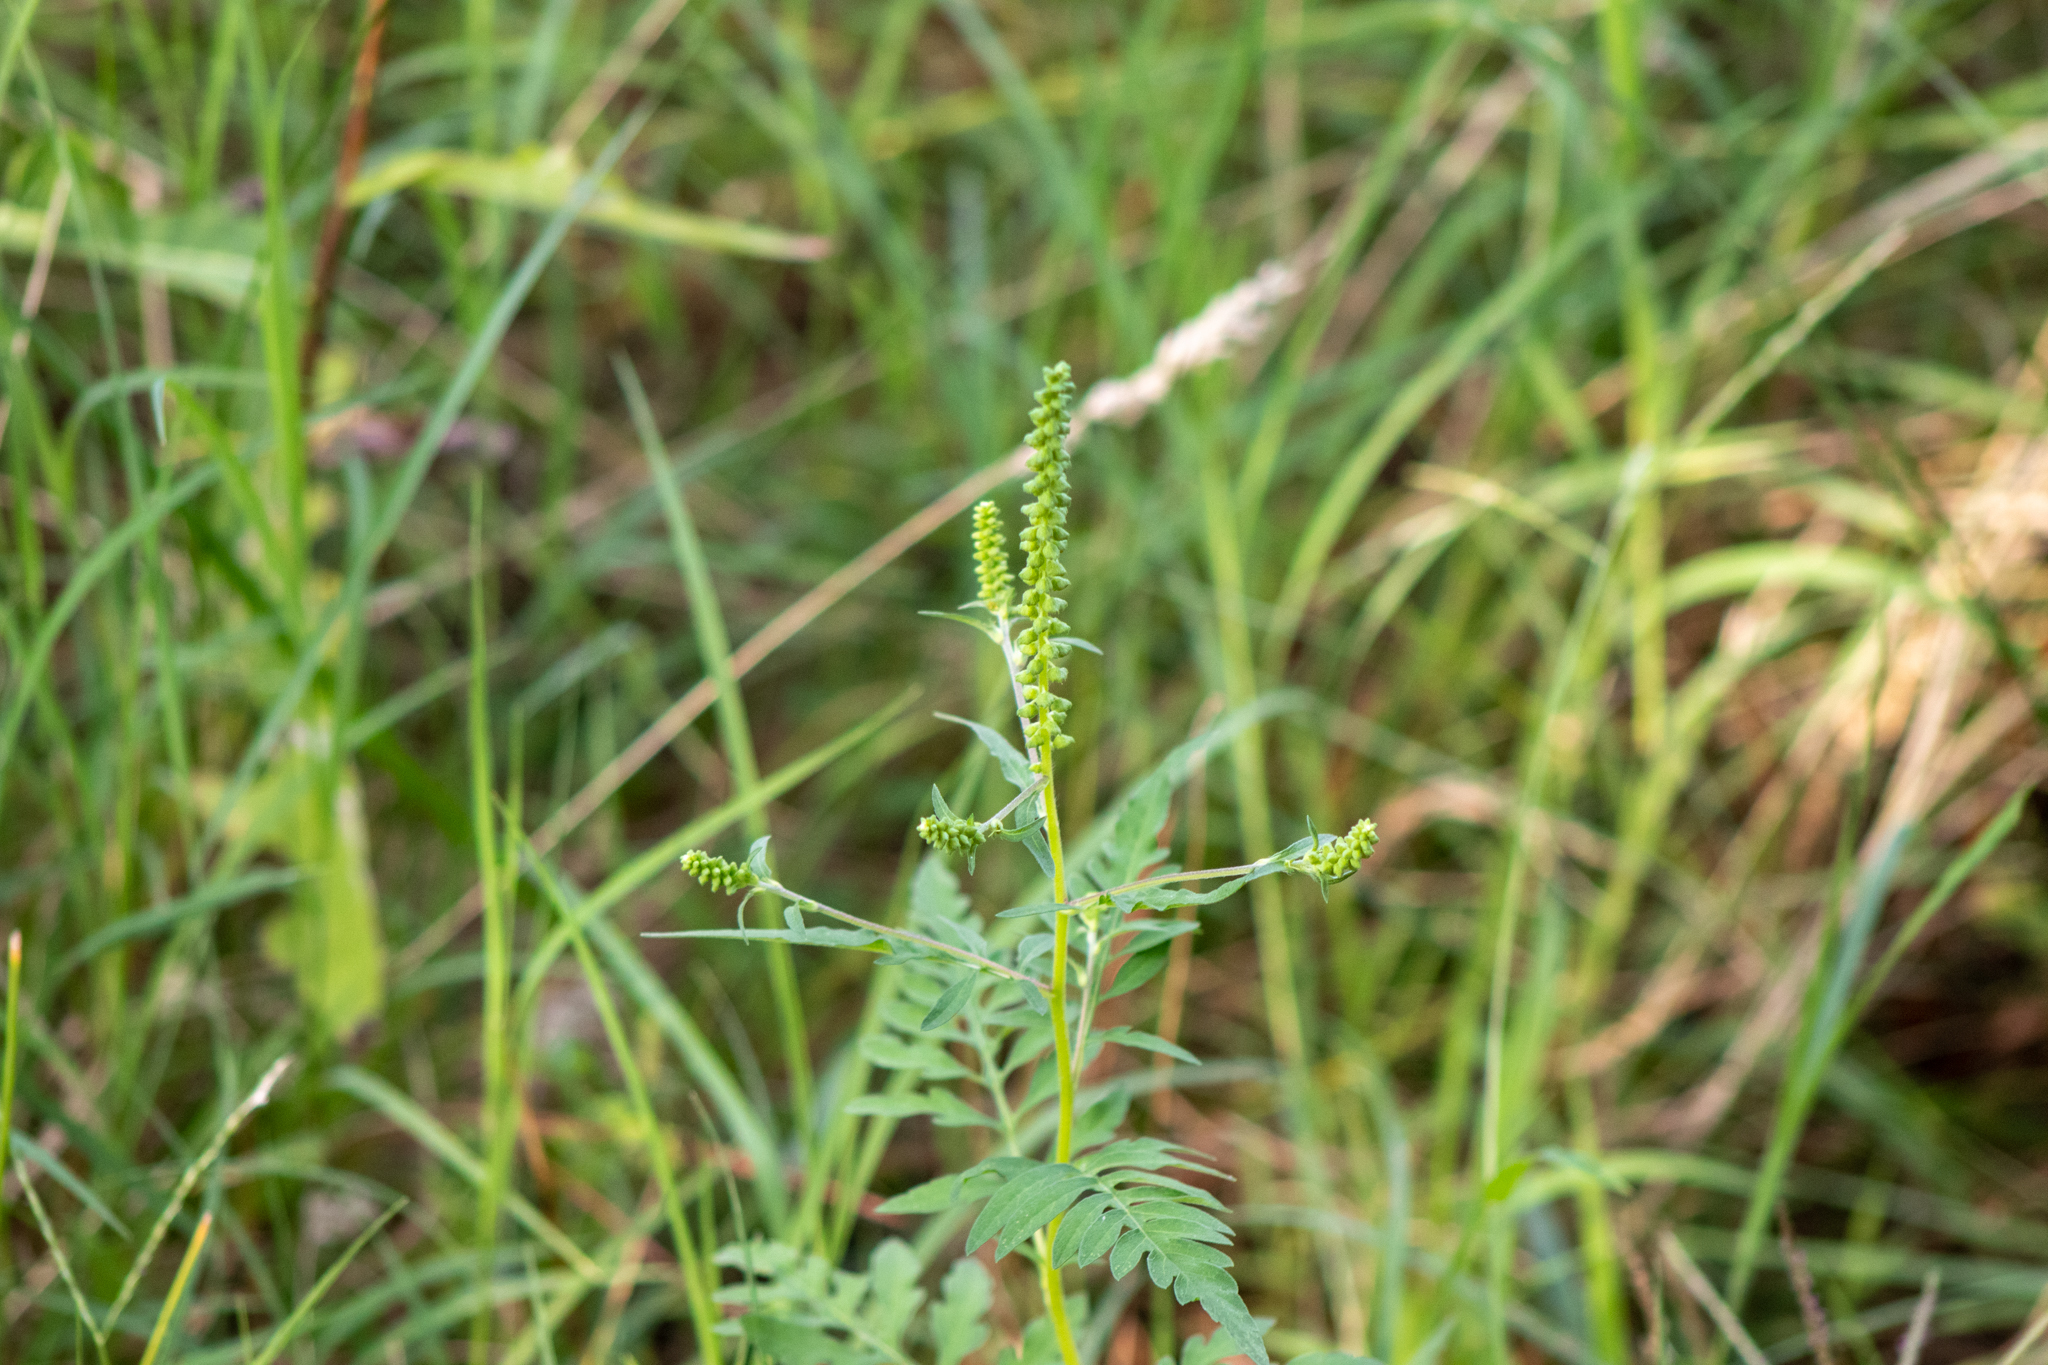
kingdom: Plantae
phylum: Tracheophyta
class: Magnoliopsida
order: Asterales
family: Asteraceae
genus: Ambrosia
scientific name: Ambrosia artemisiifolia
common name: Annual ragweed
